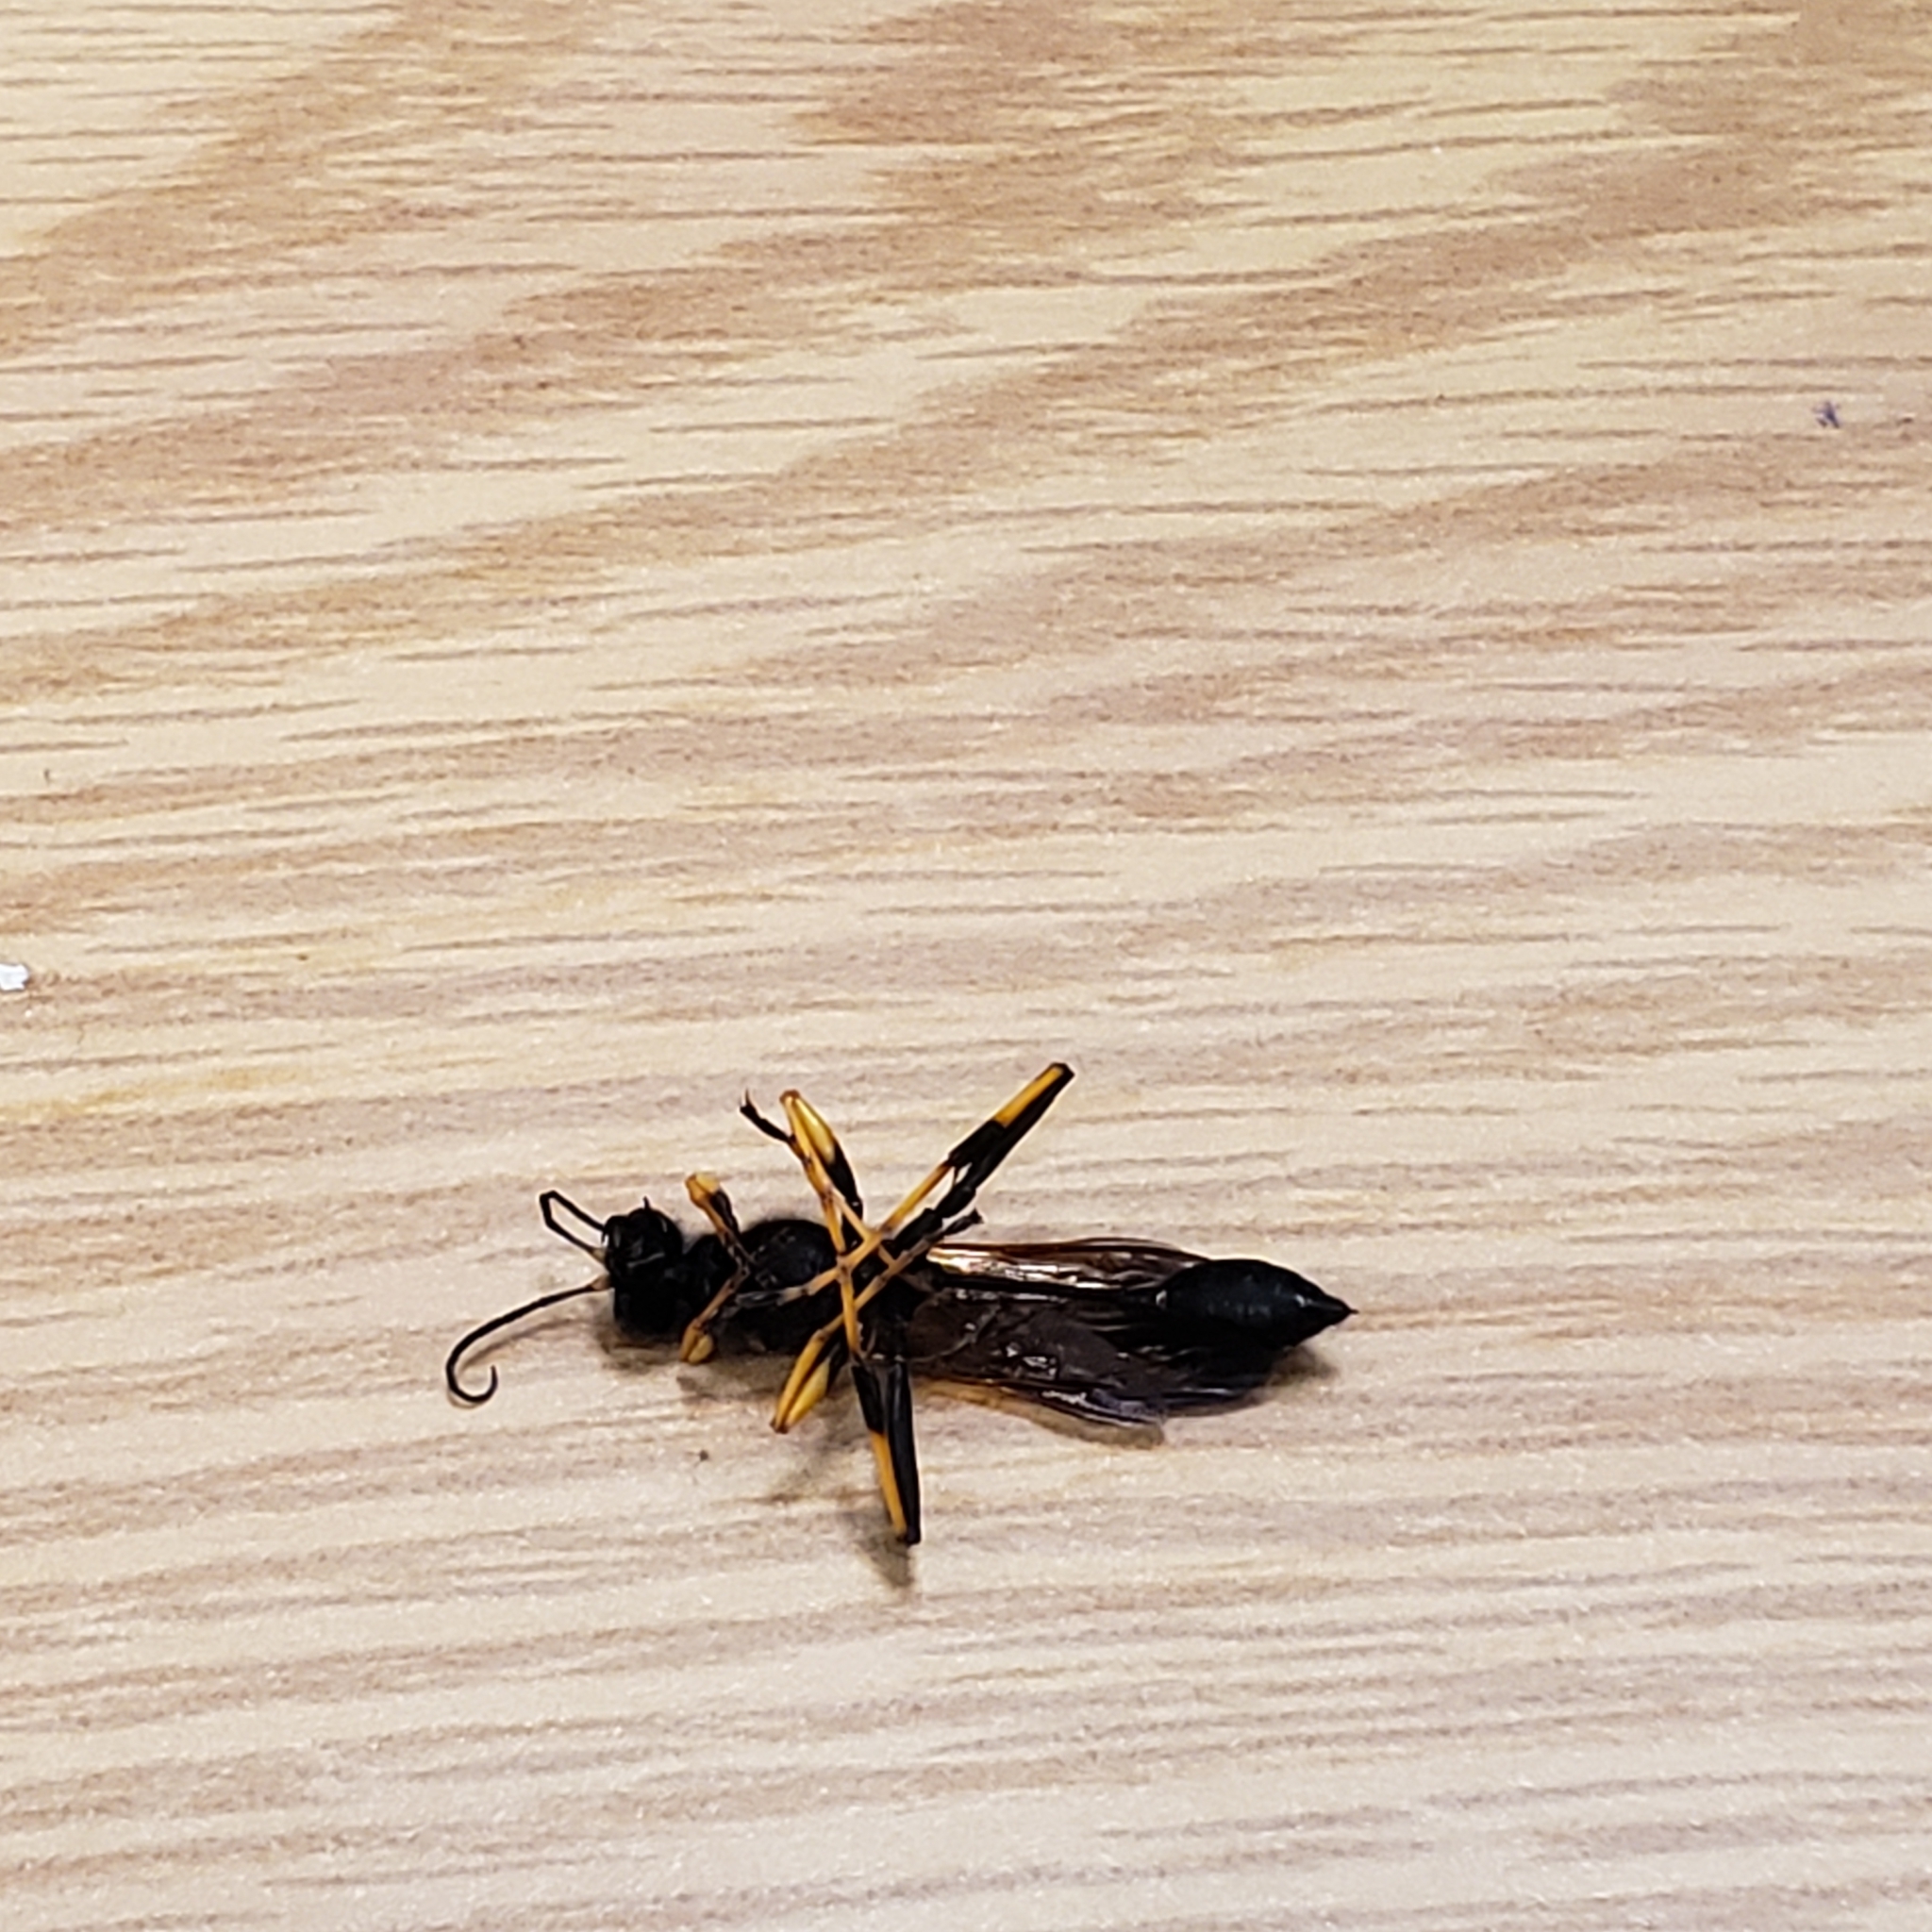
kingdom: Animalia
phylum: Arthropoda
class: Insecta
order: Hymenoptera
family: Sphecidae
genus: Sceliphron
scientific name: Sceliphron caementarium
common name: Mud dauber
